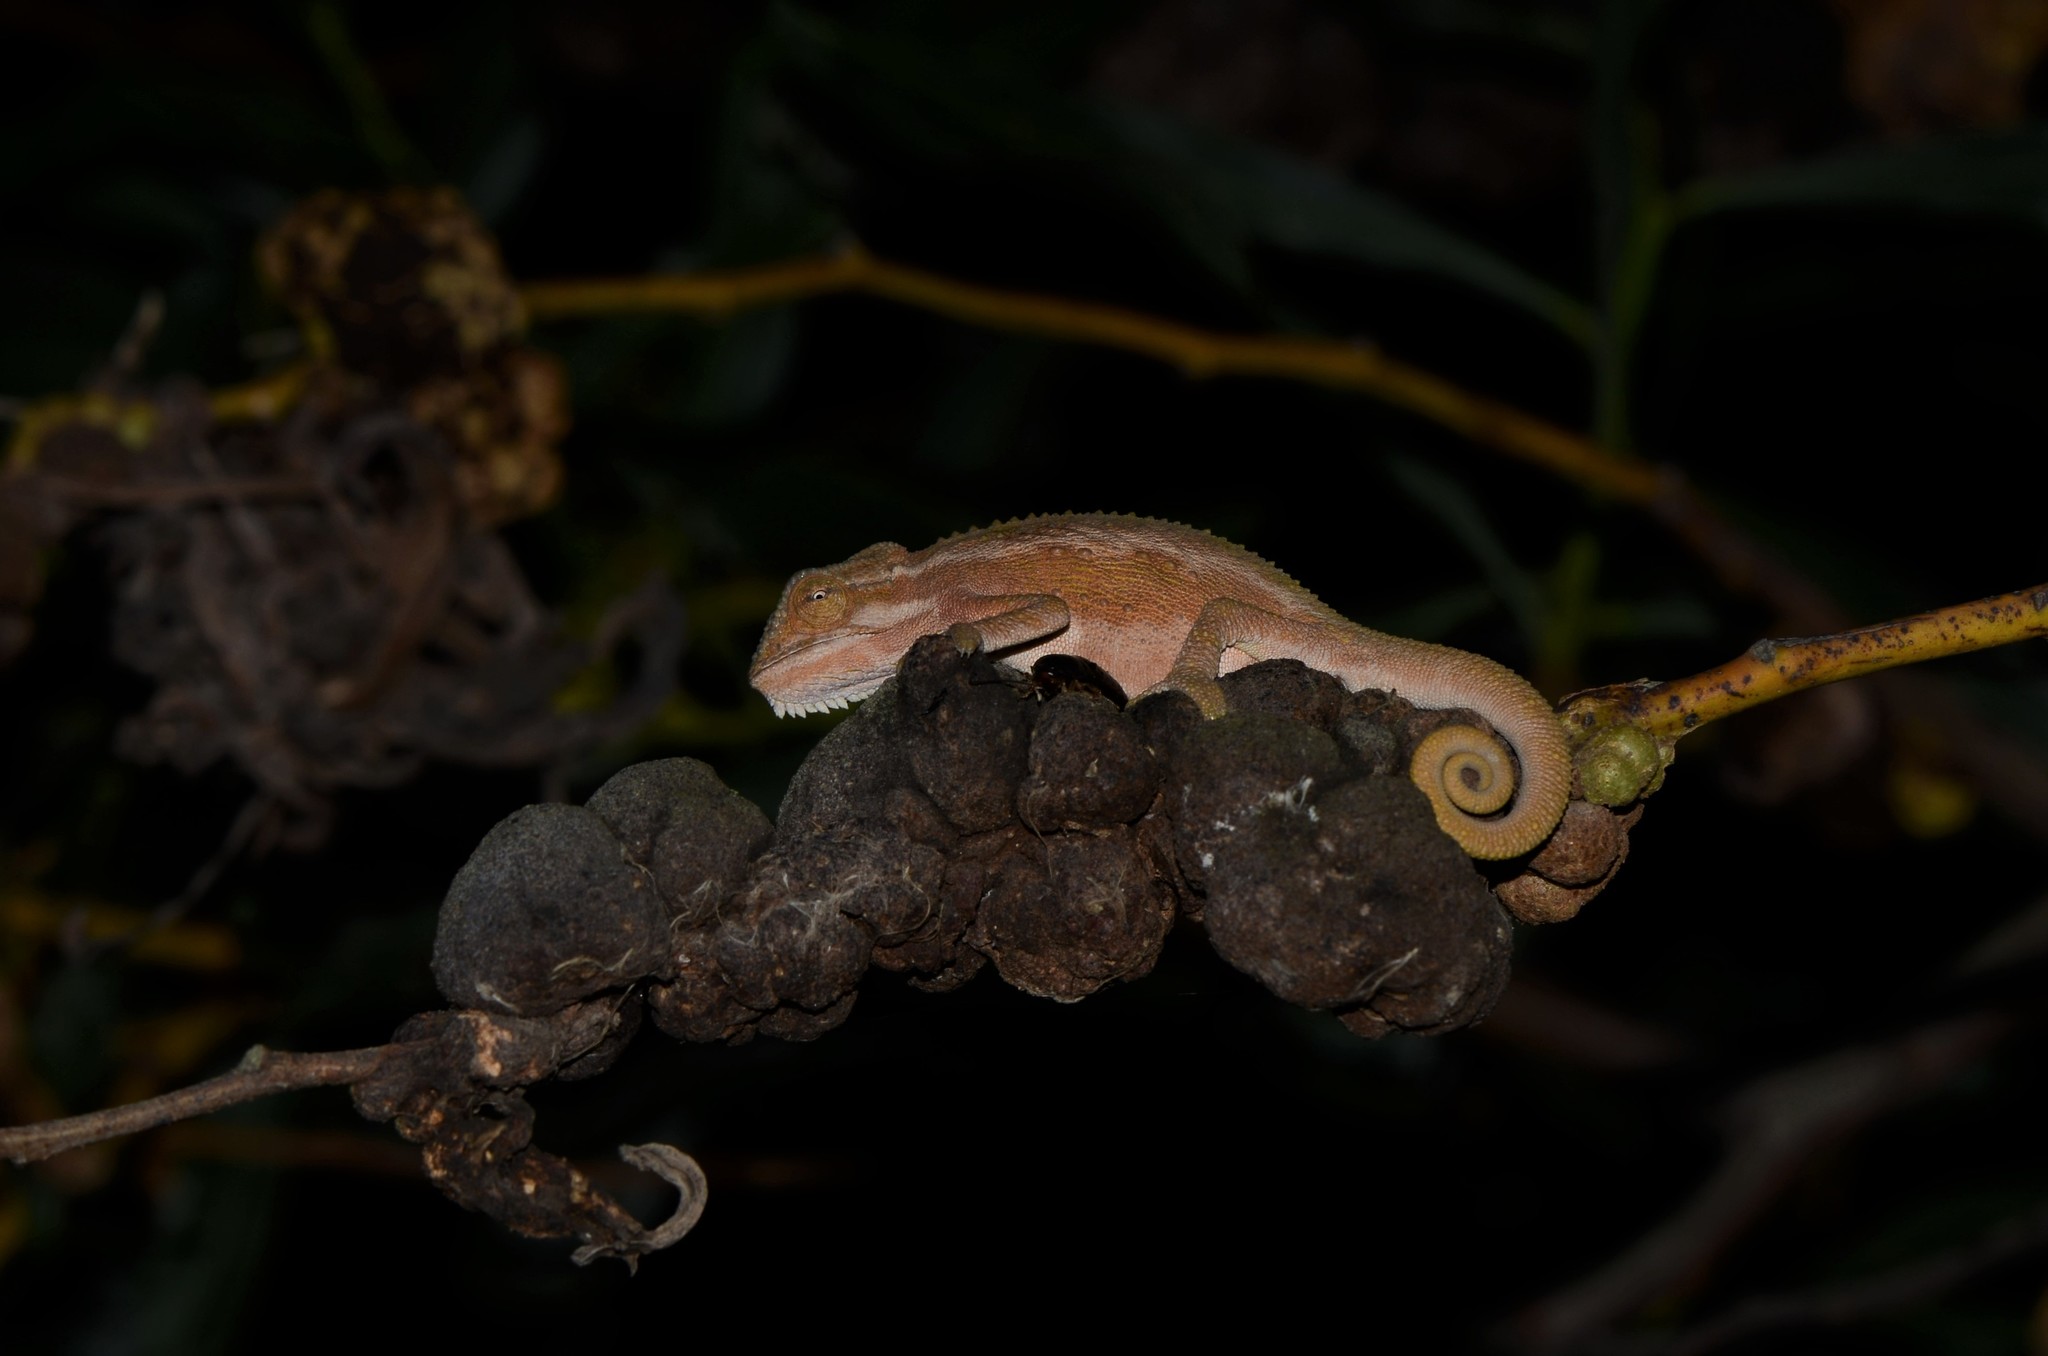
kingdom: Animalia
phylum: Chordata
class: Squamata
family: Chamaeleonidae
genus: Bradypodion
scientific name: Bradypodion pumilum
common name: Cape dwarf chameleon
